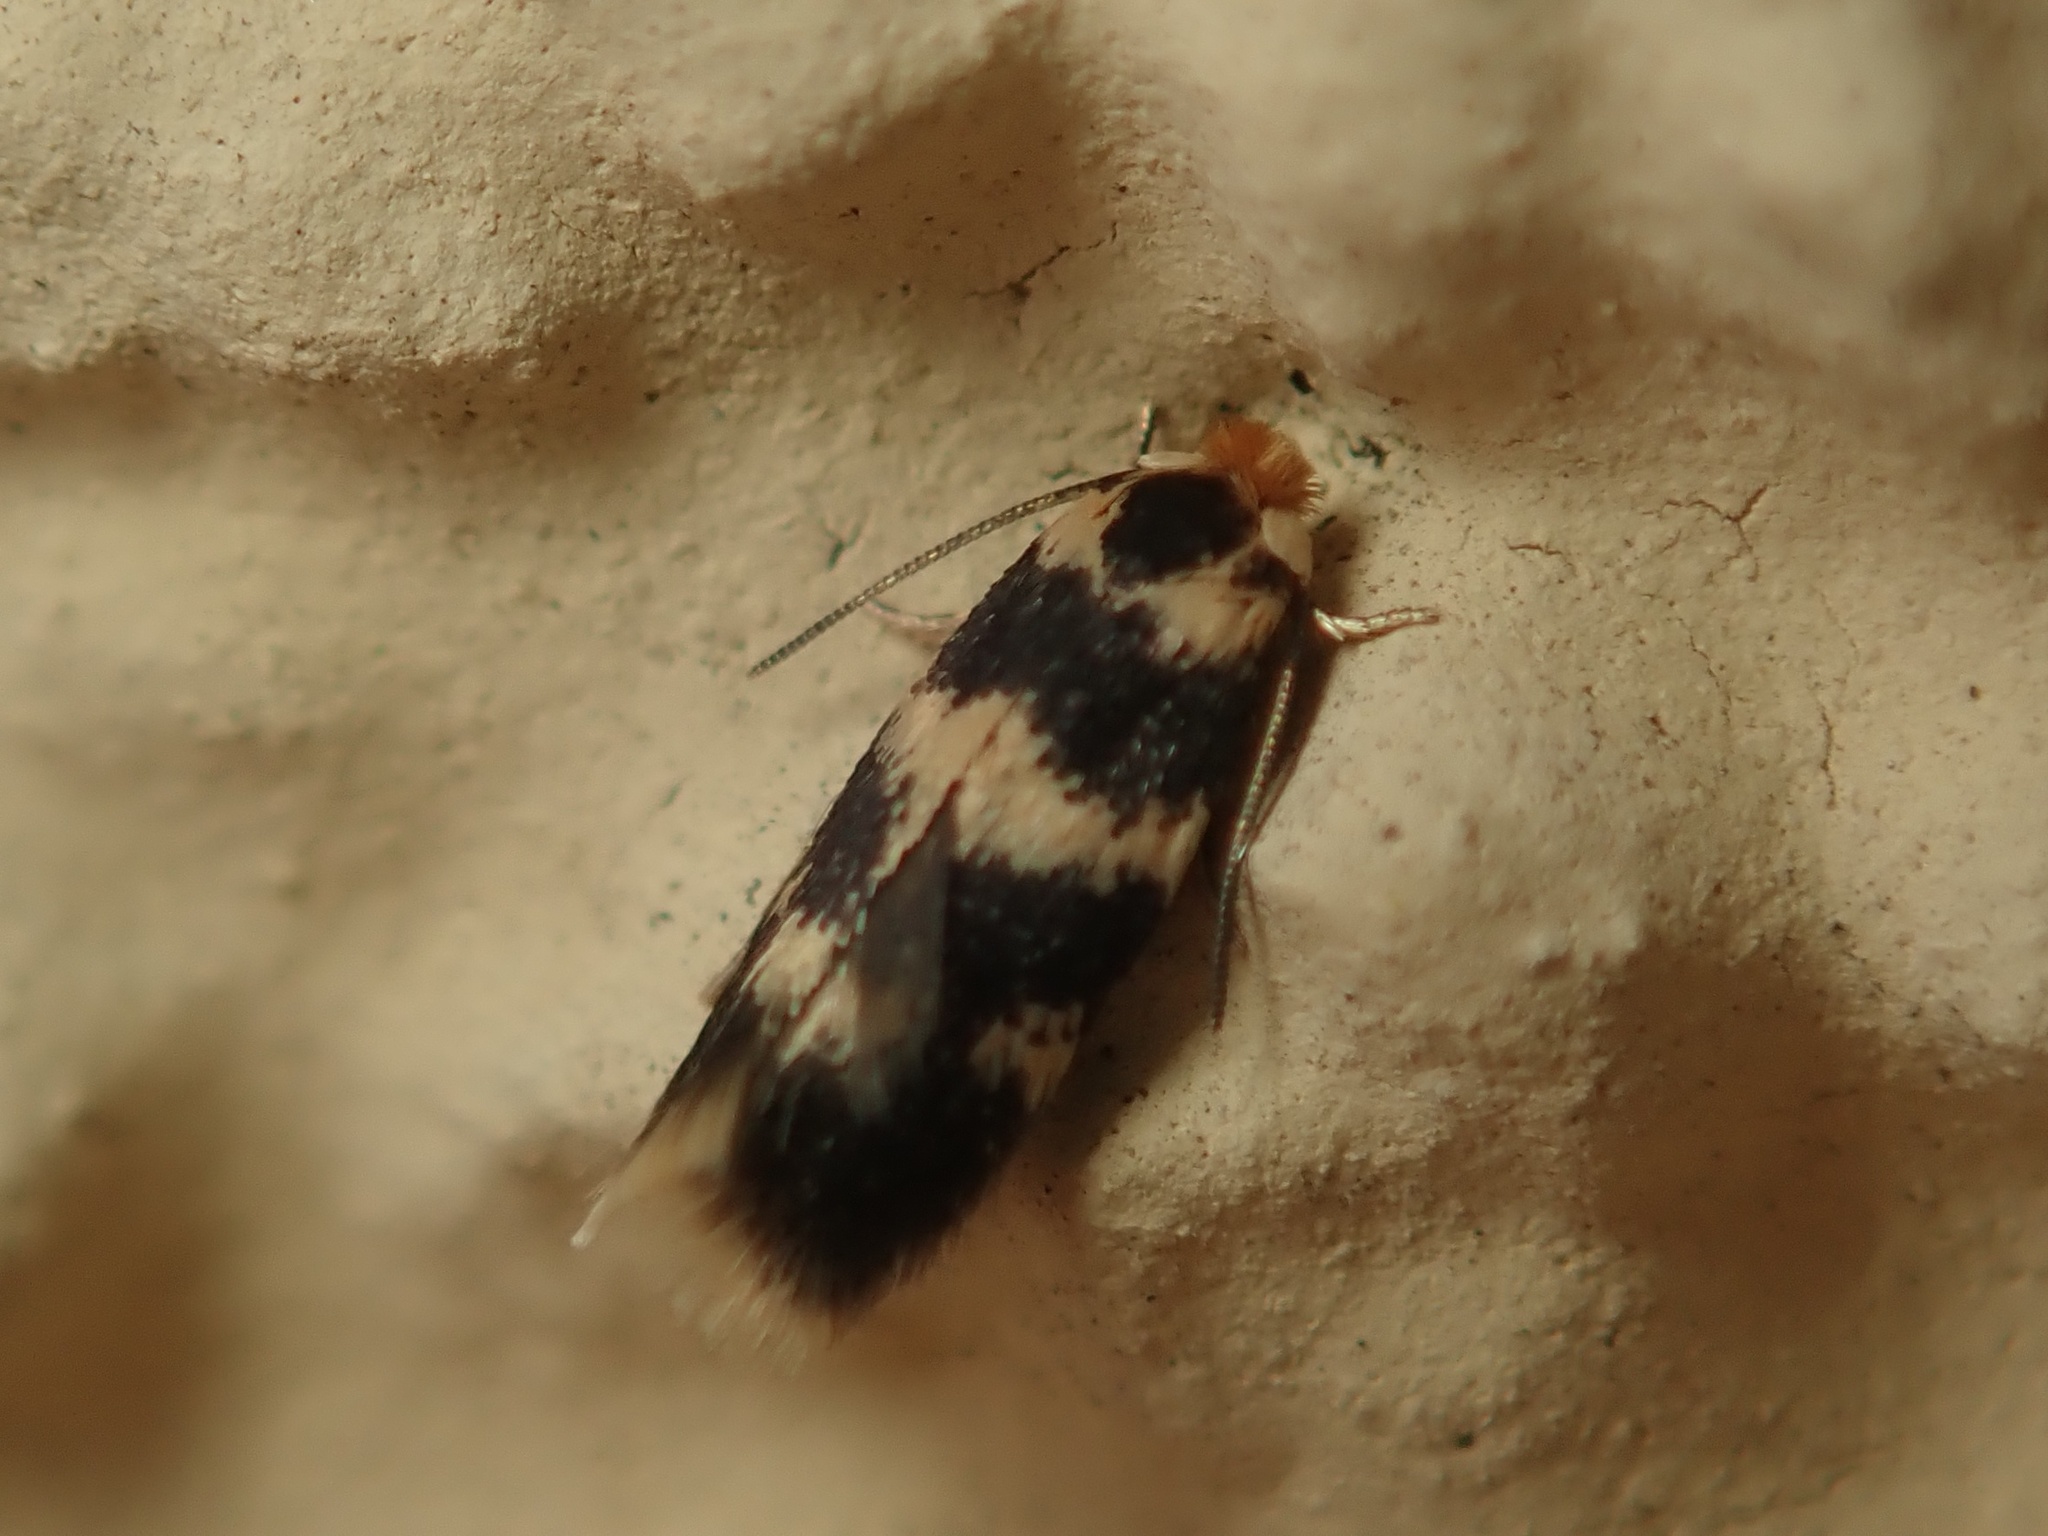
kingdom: Animalia
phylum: Arthropoda
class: Insecta
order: Lepidoptera
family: Nepticulidae
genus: Etainia
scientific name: Etainia sericopeza
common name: Leafminer
